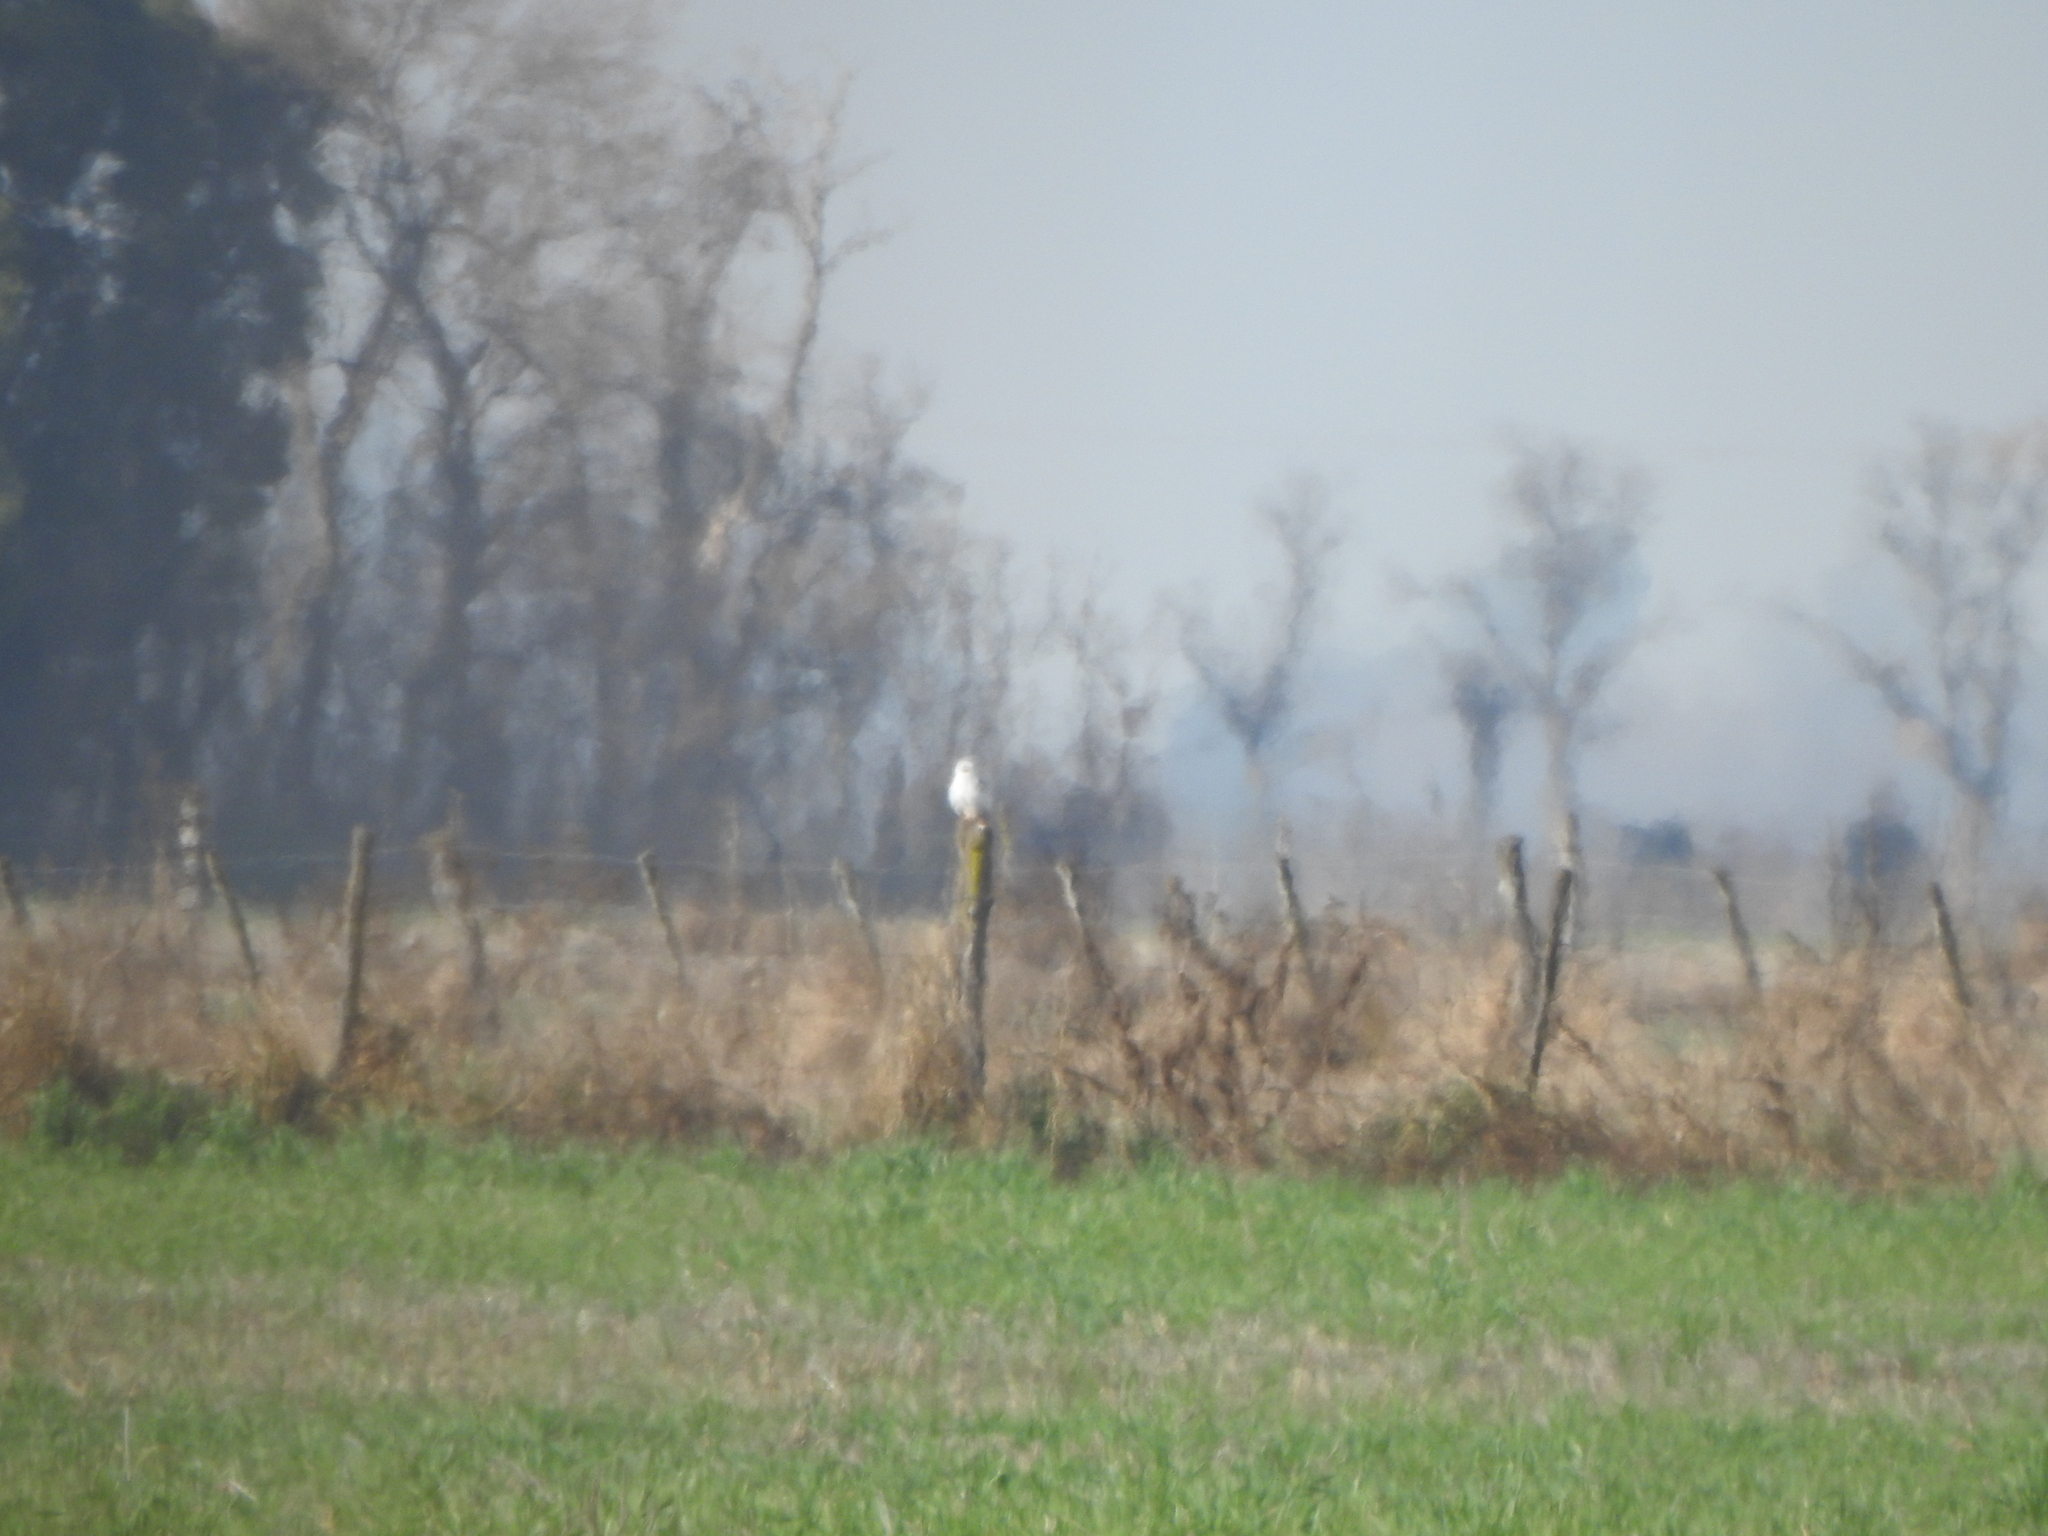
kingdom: Animalia
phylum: Chordata
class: Aves
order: Accipitriformes
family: Accipitridae
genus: Elanus
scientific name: Elanus leucurus
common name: White-tailed kite
